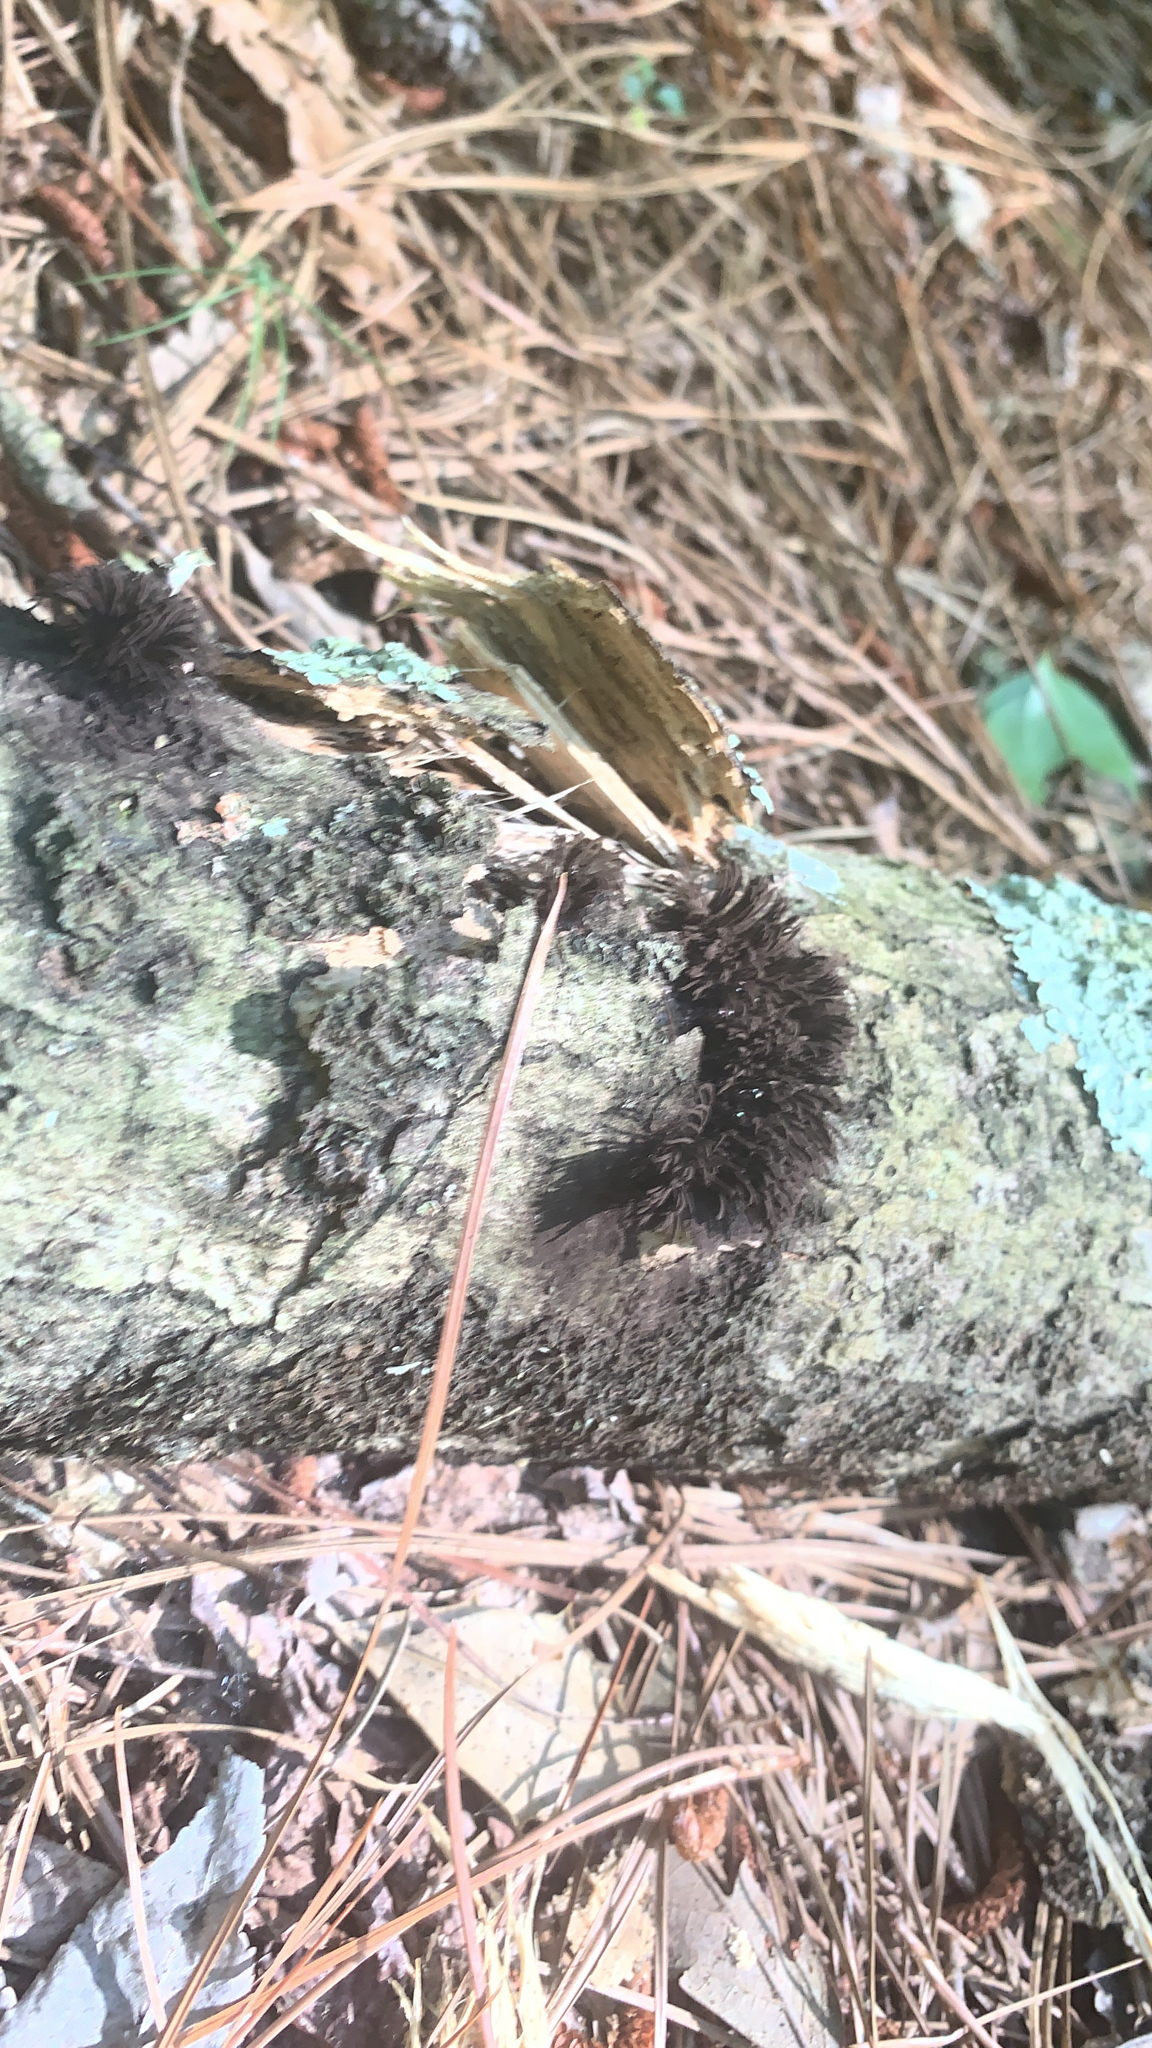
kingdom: Protozoa
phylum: Mycetozoa
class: Myxomycetes
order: Stemonitidales
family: Stemonitidaceae
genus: Stemonitis
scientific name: Stemonitis splendens
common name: Chocolate tube slime
